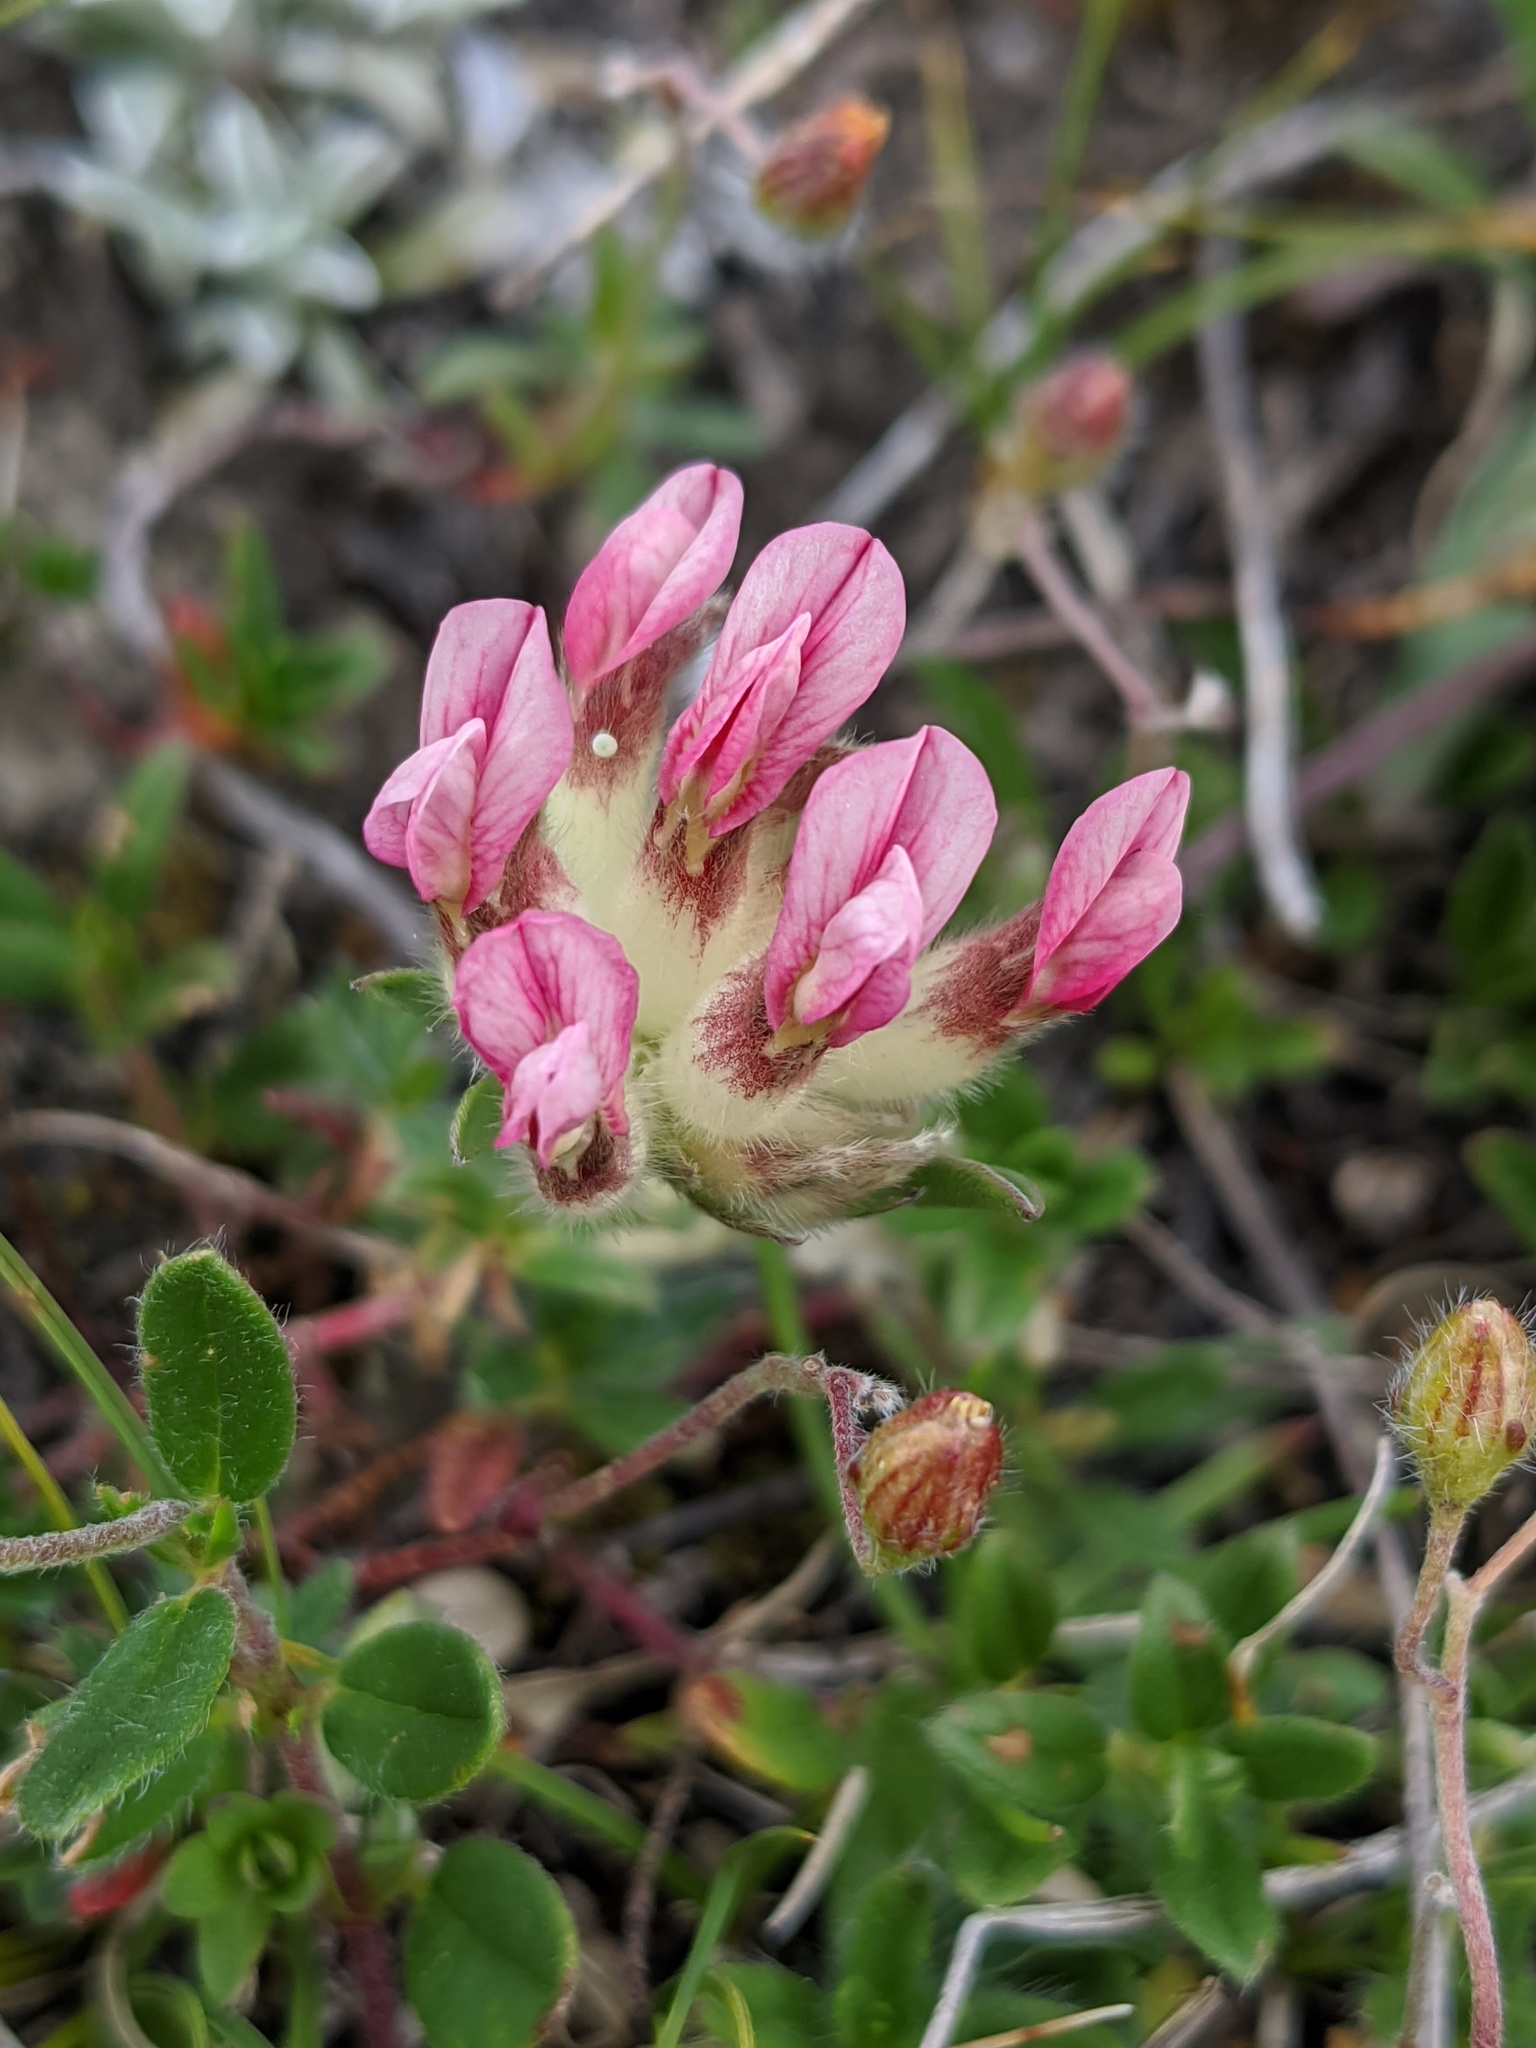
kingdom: Plantae
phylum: Tracheophyta
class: Magnoliopsida
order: Fabales
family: Fabaceae
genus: Anthyllis
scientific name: Anthyllis montana
